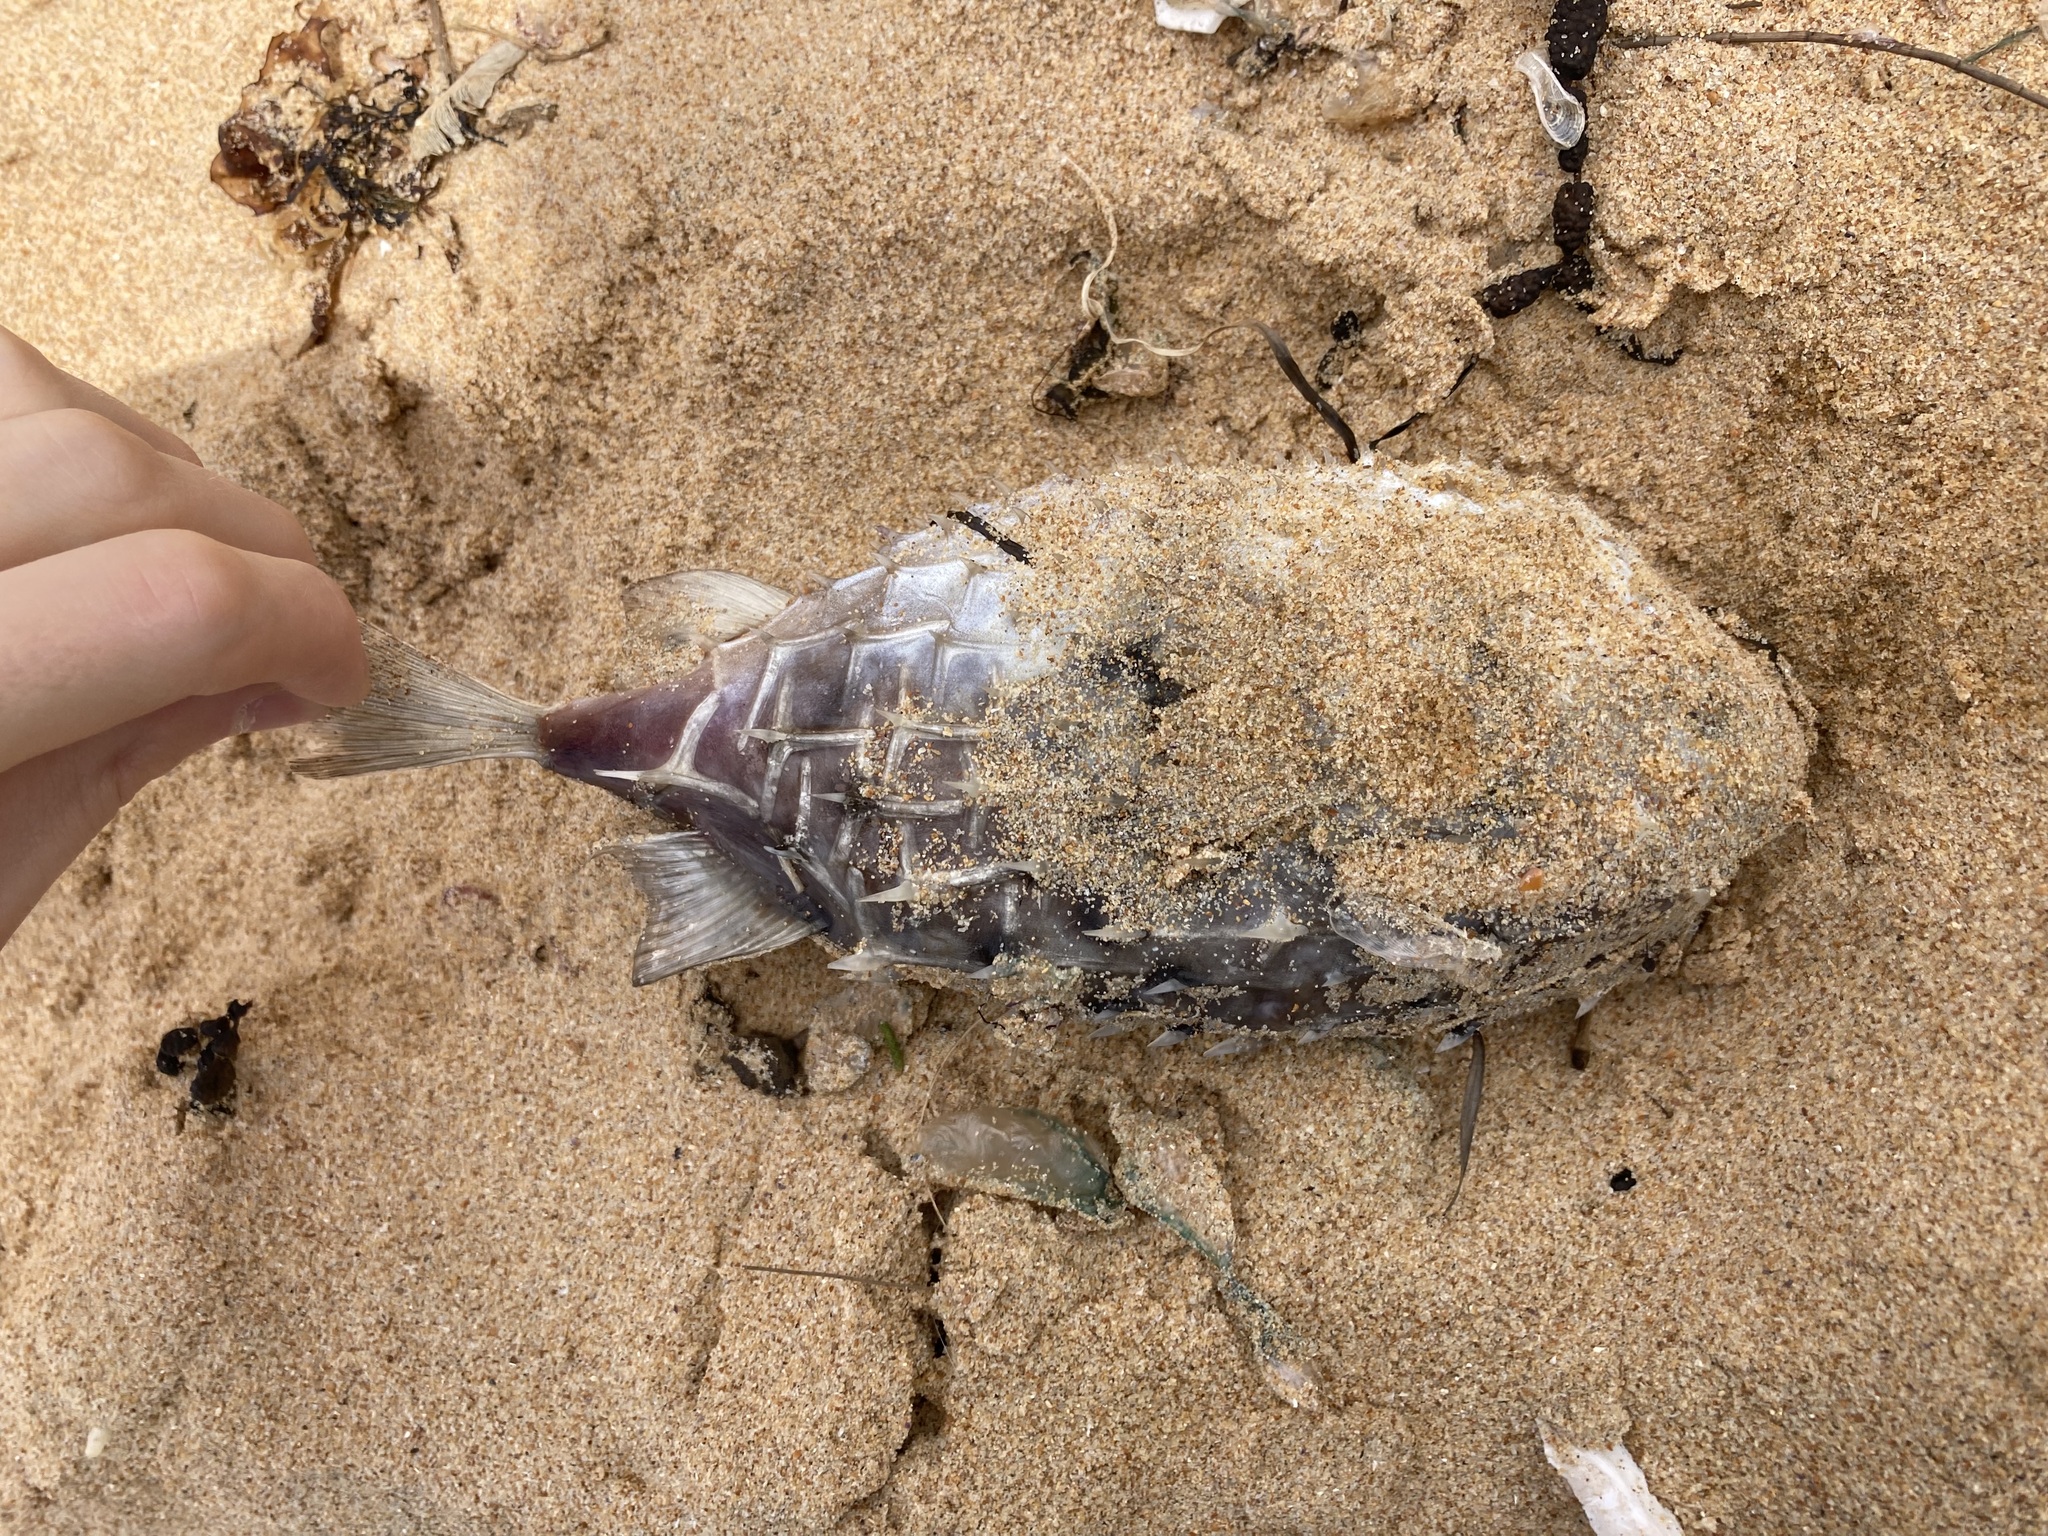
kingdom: Animalia
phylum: Chordata
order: Tetraodontiformes
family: Diodontidae
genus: Allomycterus
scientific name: Allomycterus pilatus
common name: No common name
